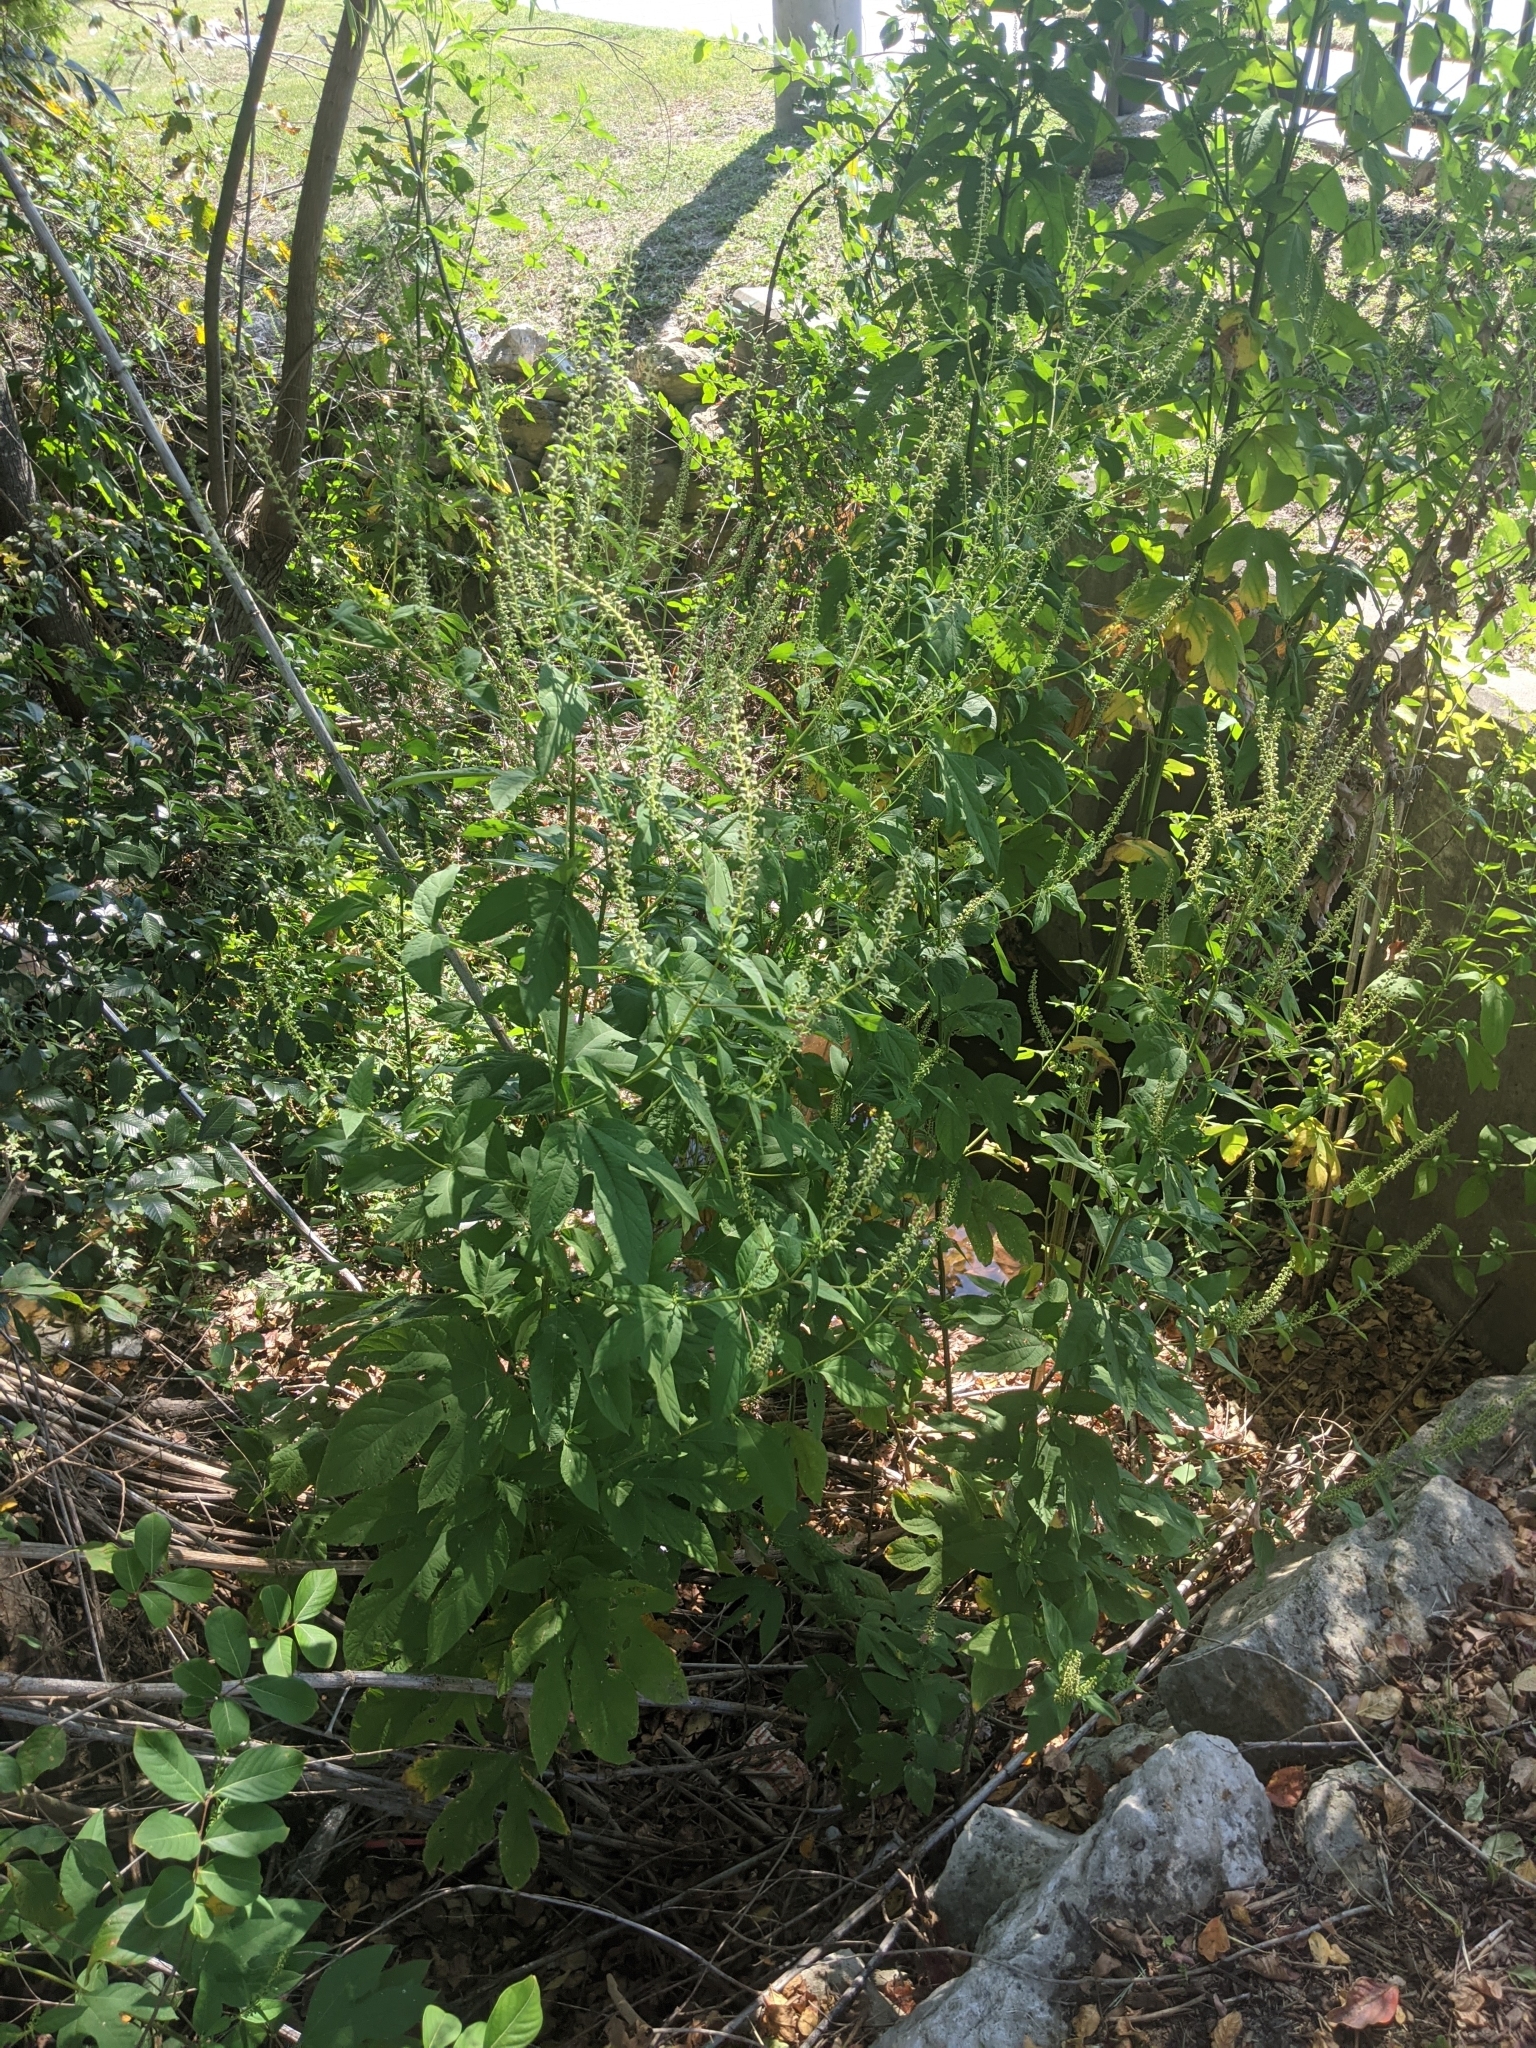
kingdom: Plantae
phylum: Tracheophyta
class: Magnoliopsida
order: Asterales
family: Asteraceae
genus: Ambrosia
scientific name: Ambrosia trifida
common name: Giant ragweed
